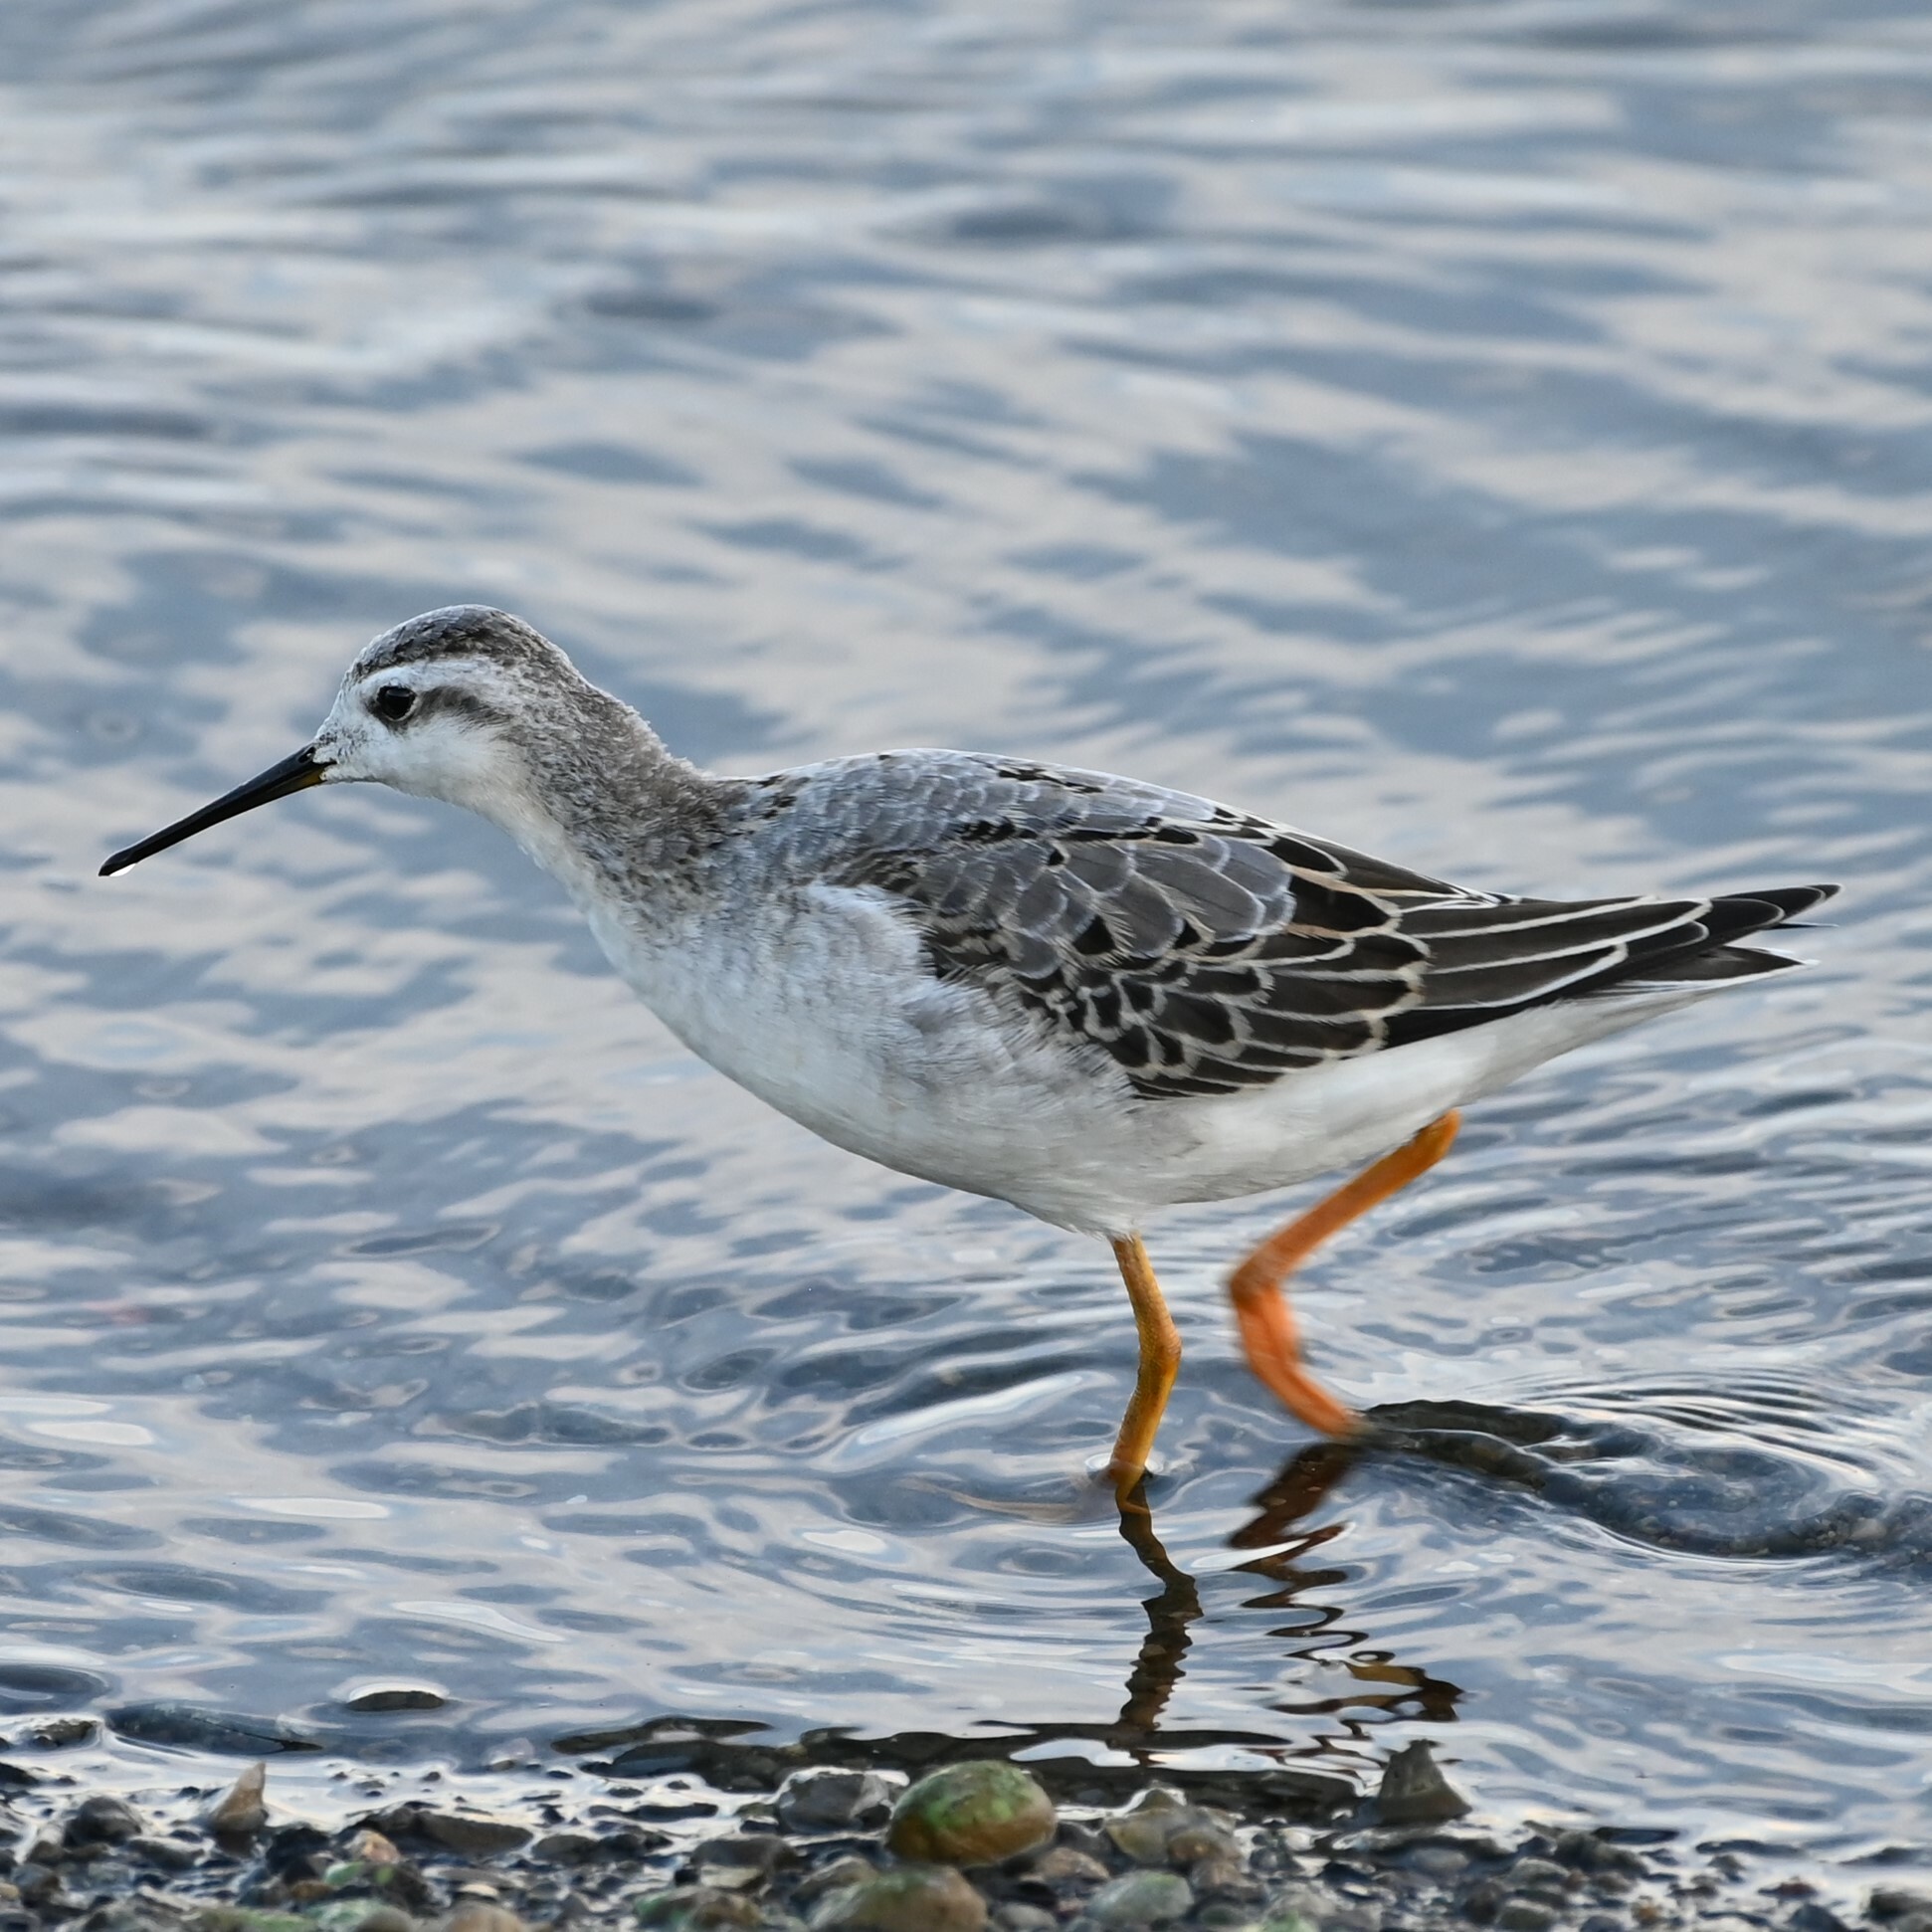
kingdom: Animalia
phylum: Chordata
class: Aves
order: Charadriiformes
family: Scolopacidae
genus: Phalaropus
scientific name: Phalaropus tricolor
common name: Wilson's phalarope
